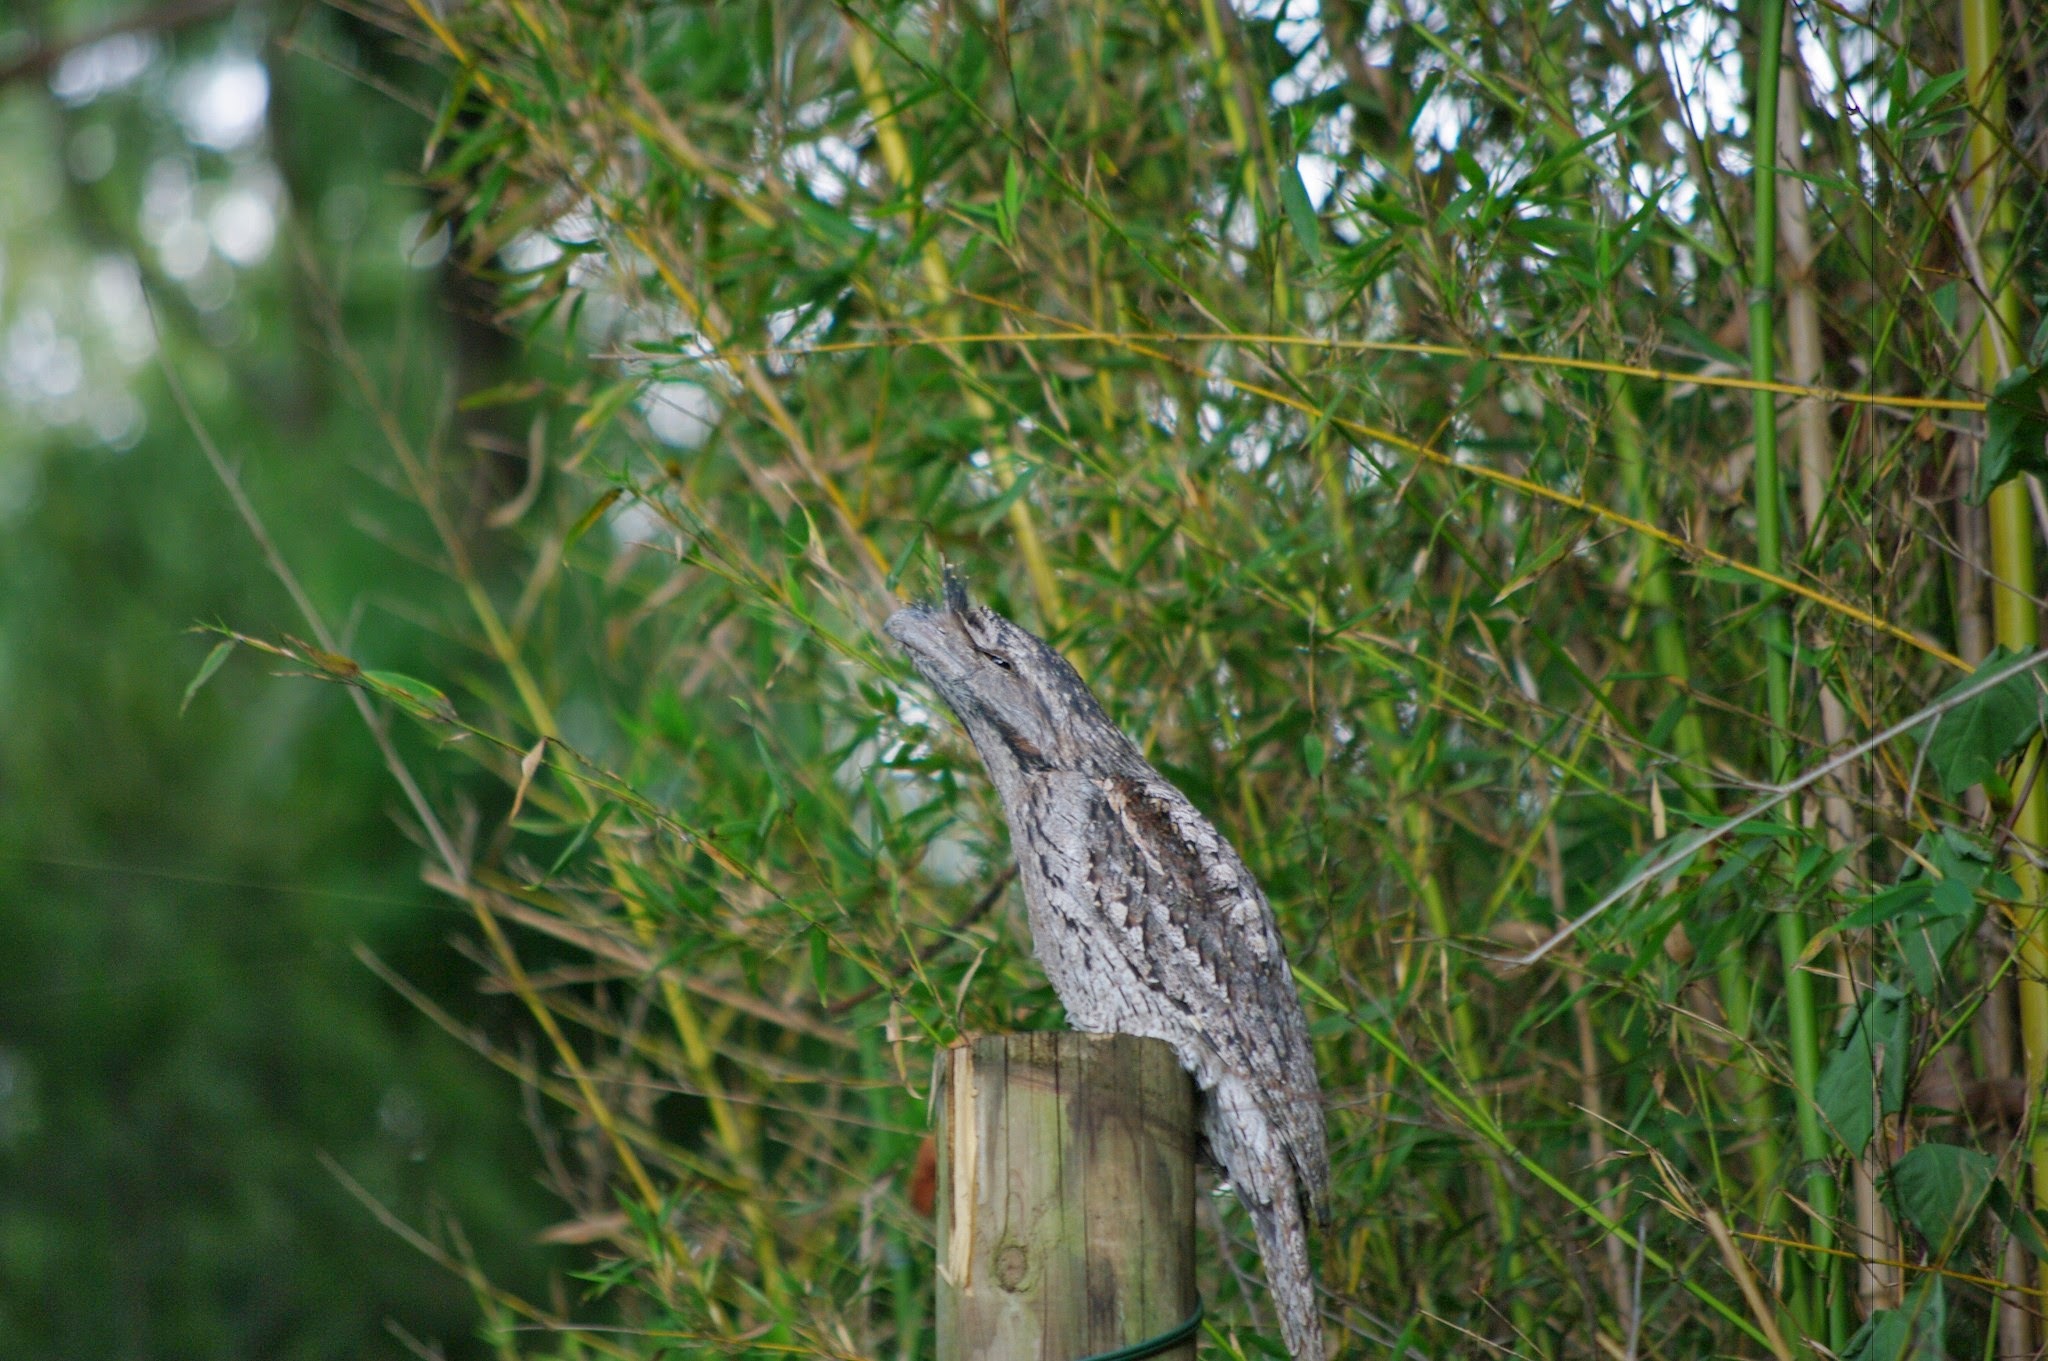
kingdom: Animalia
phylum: Chordata
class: Aves
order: Caprimulgiformes
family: Podargidae
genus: Podargus
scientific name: Podargus strigoides
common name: Tawny frogmouth
